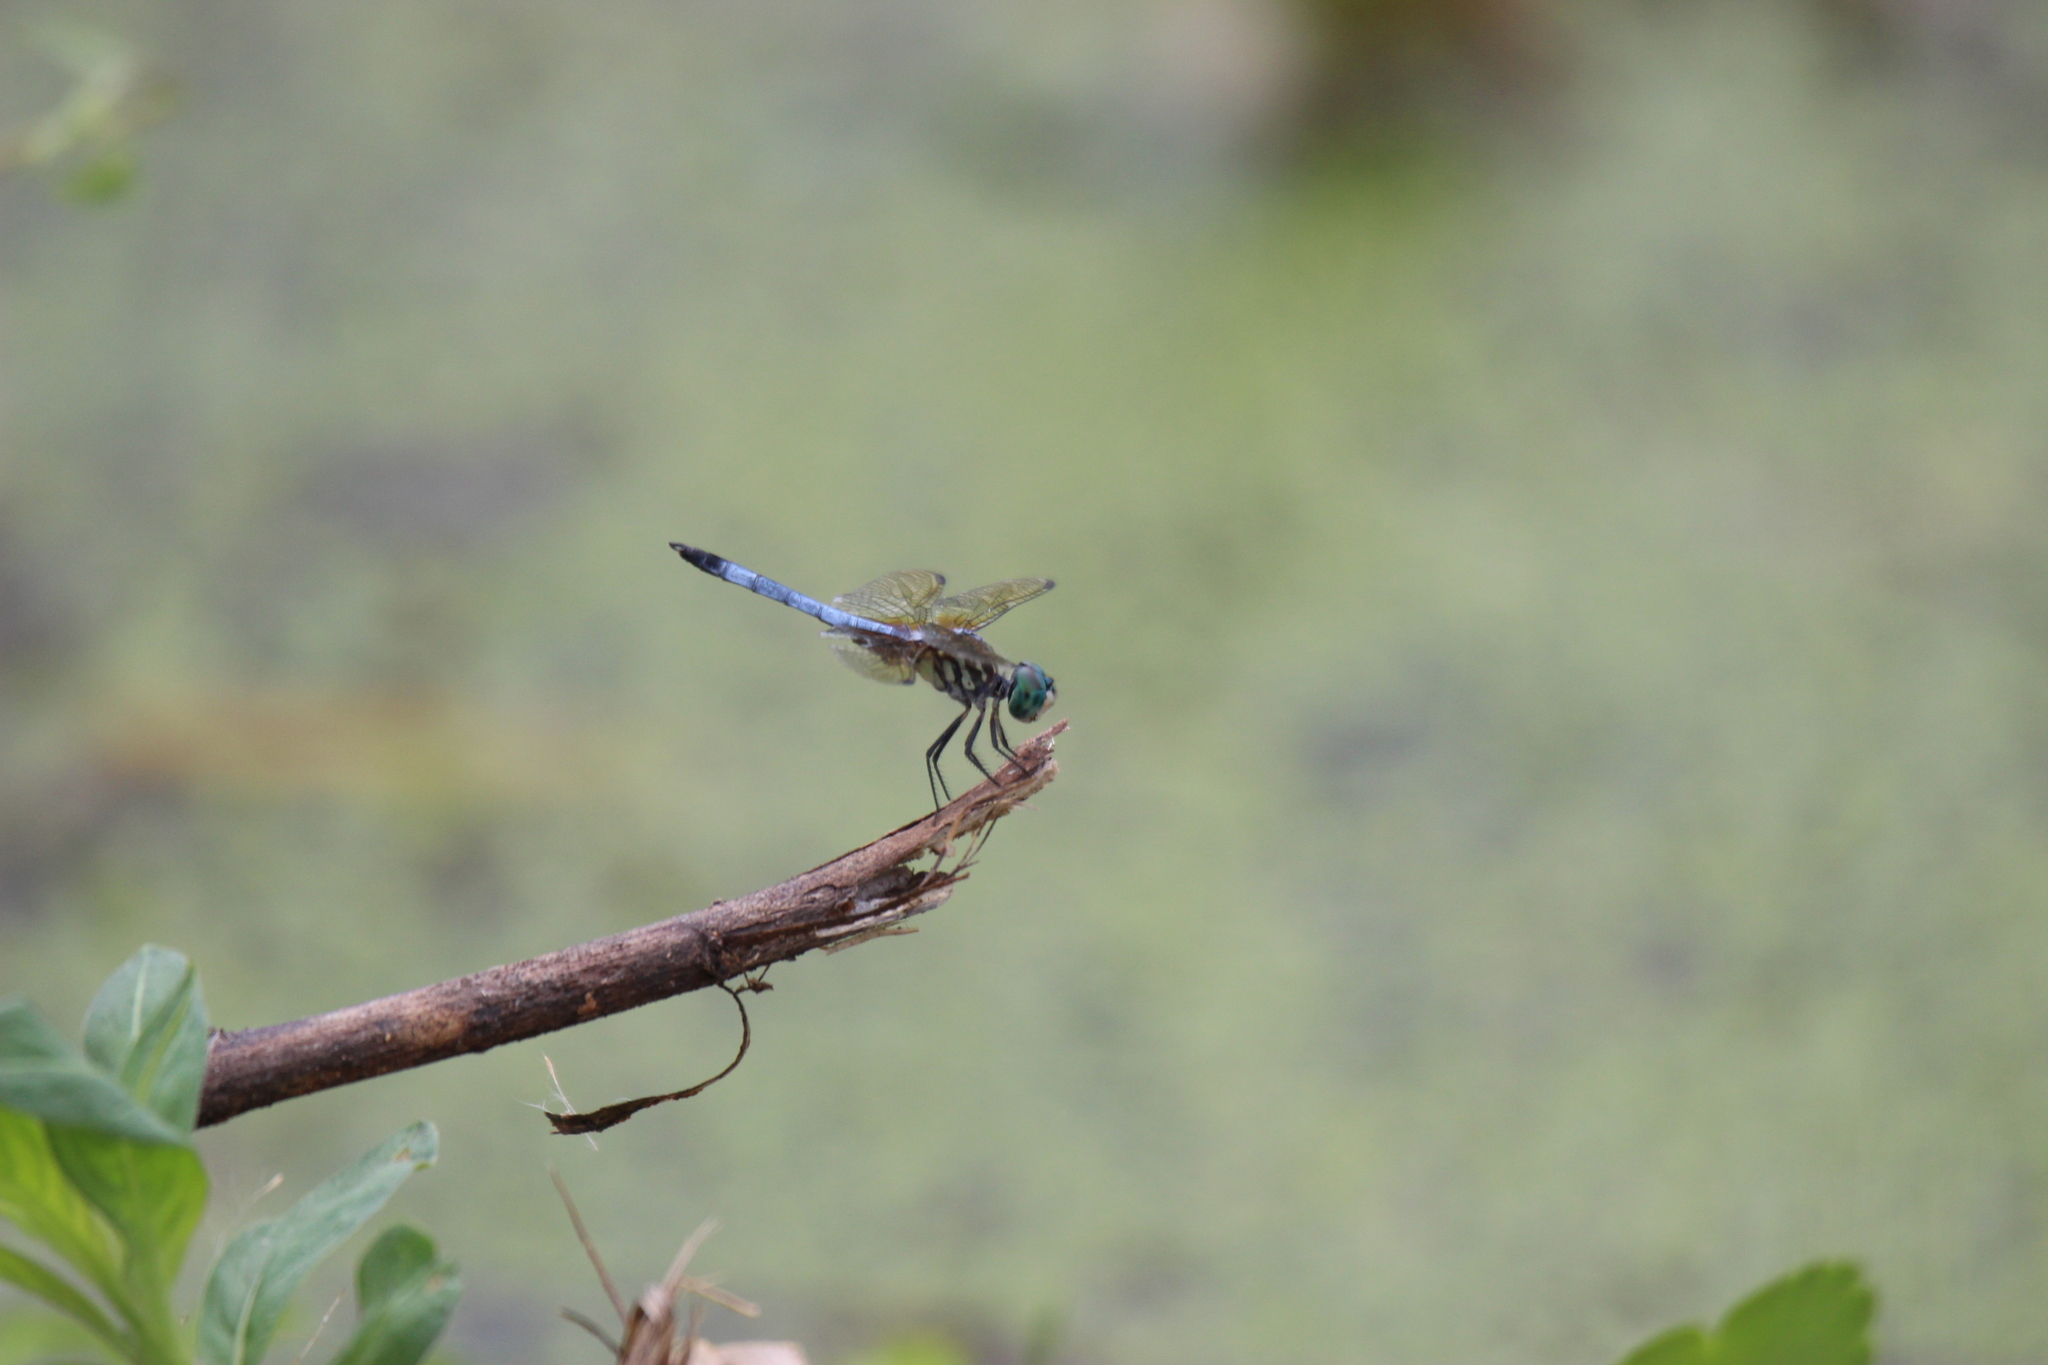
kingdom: Animalia
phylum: Arthropoda
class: Insecta
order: Odonata
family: Libellulidae
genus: Pachydiplax
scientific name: Pachydiplax longipennis
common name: Blue dasher
